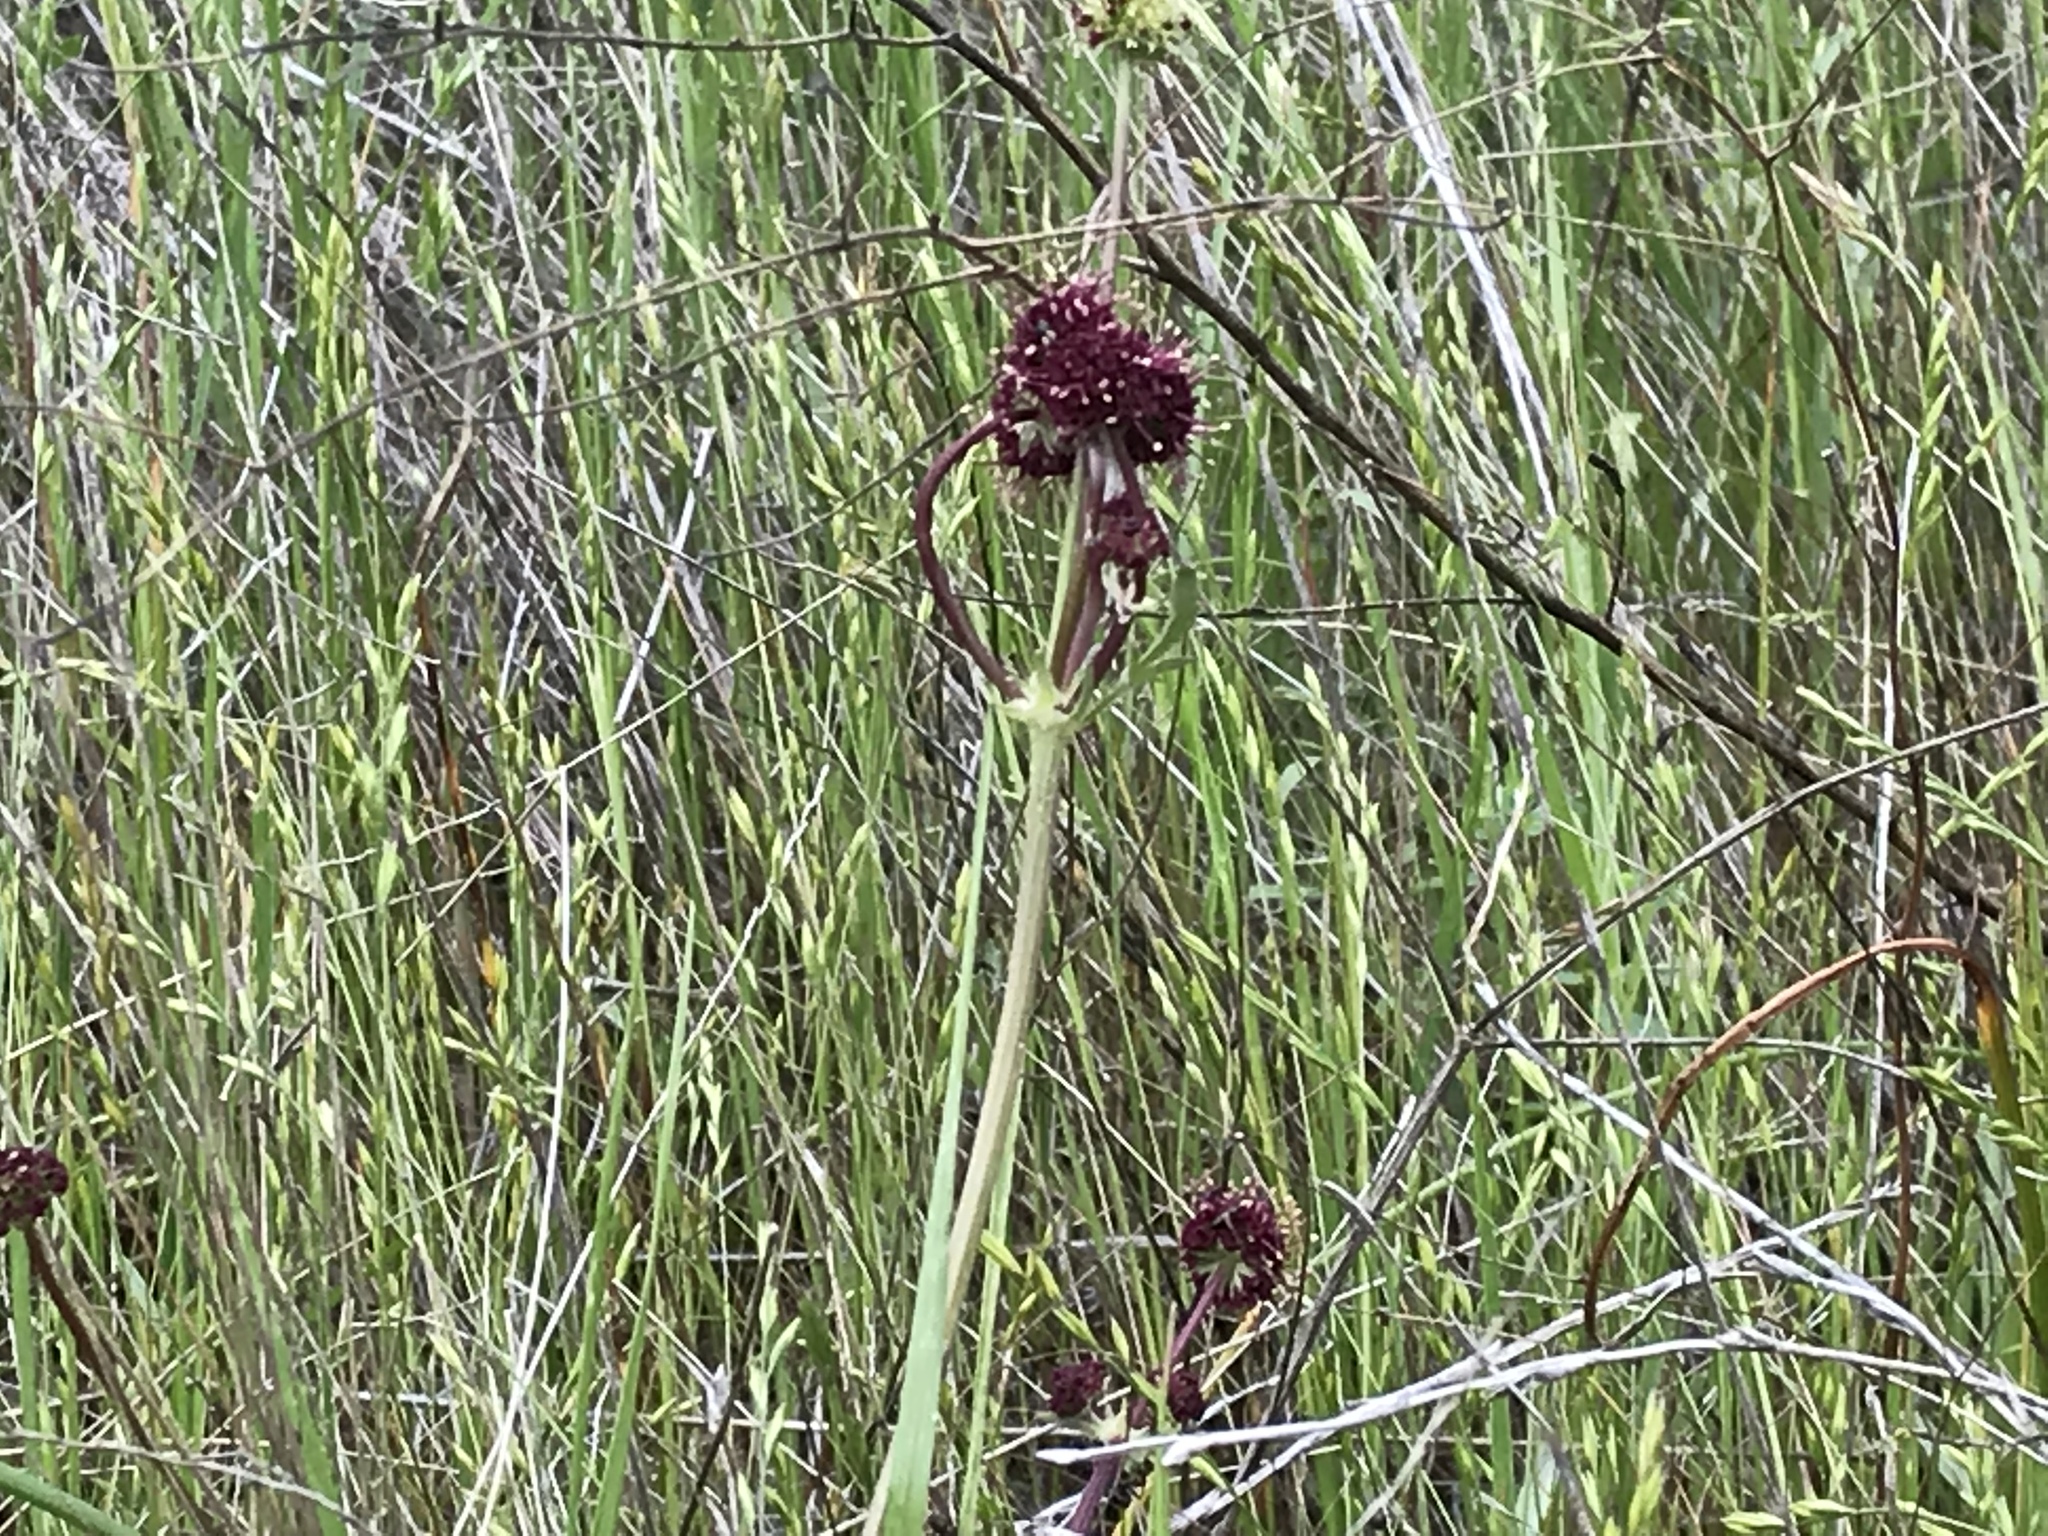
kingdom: Plantae
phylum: Tracheophyta
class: Magnoliopsida
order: Apiales
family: Apiaceae
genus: Sanicula
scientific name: Sanicula bipinnatifida
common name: Shoe-buttons
